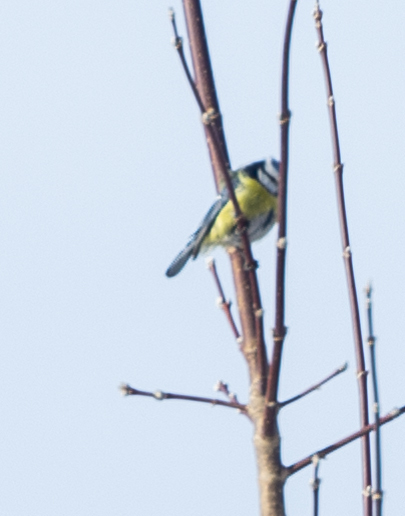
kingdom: Animalia
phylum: Chordata
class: Aves
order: Passeriformes
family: Paridae
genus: Cyanistes
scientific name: Cyanistes caeruleus
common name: Eurasian blue tit
